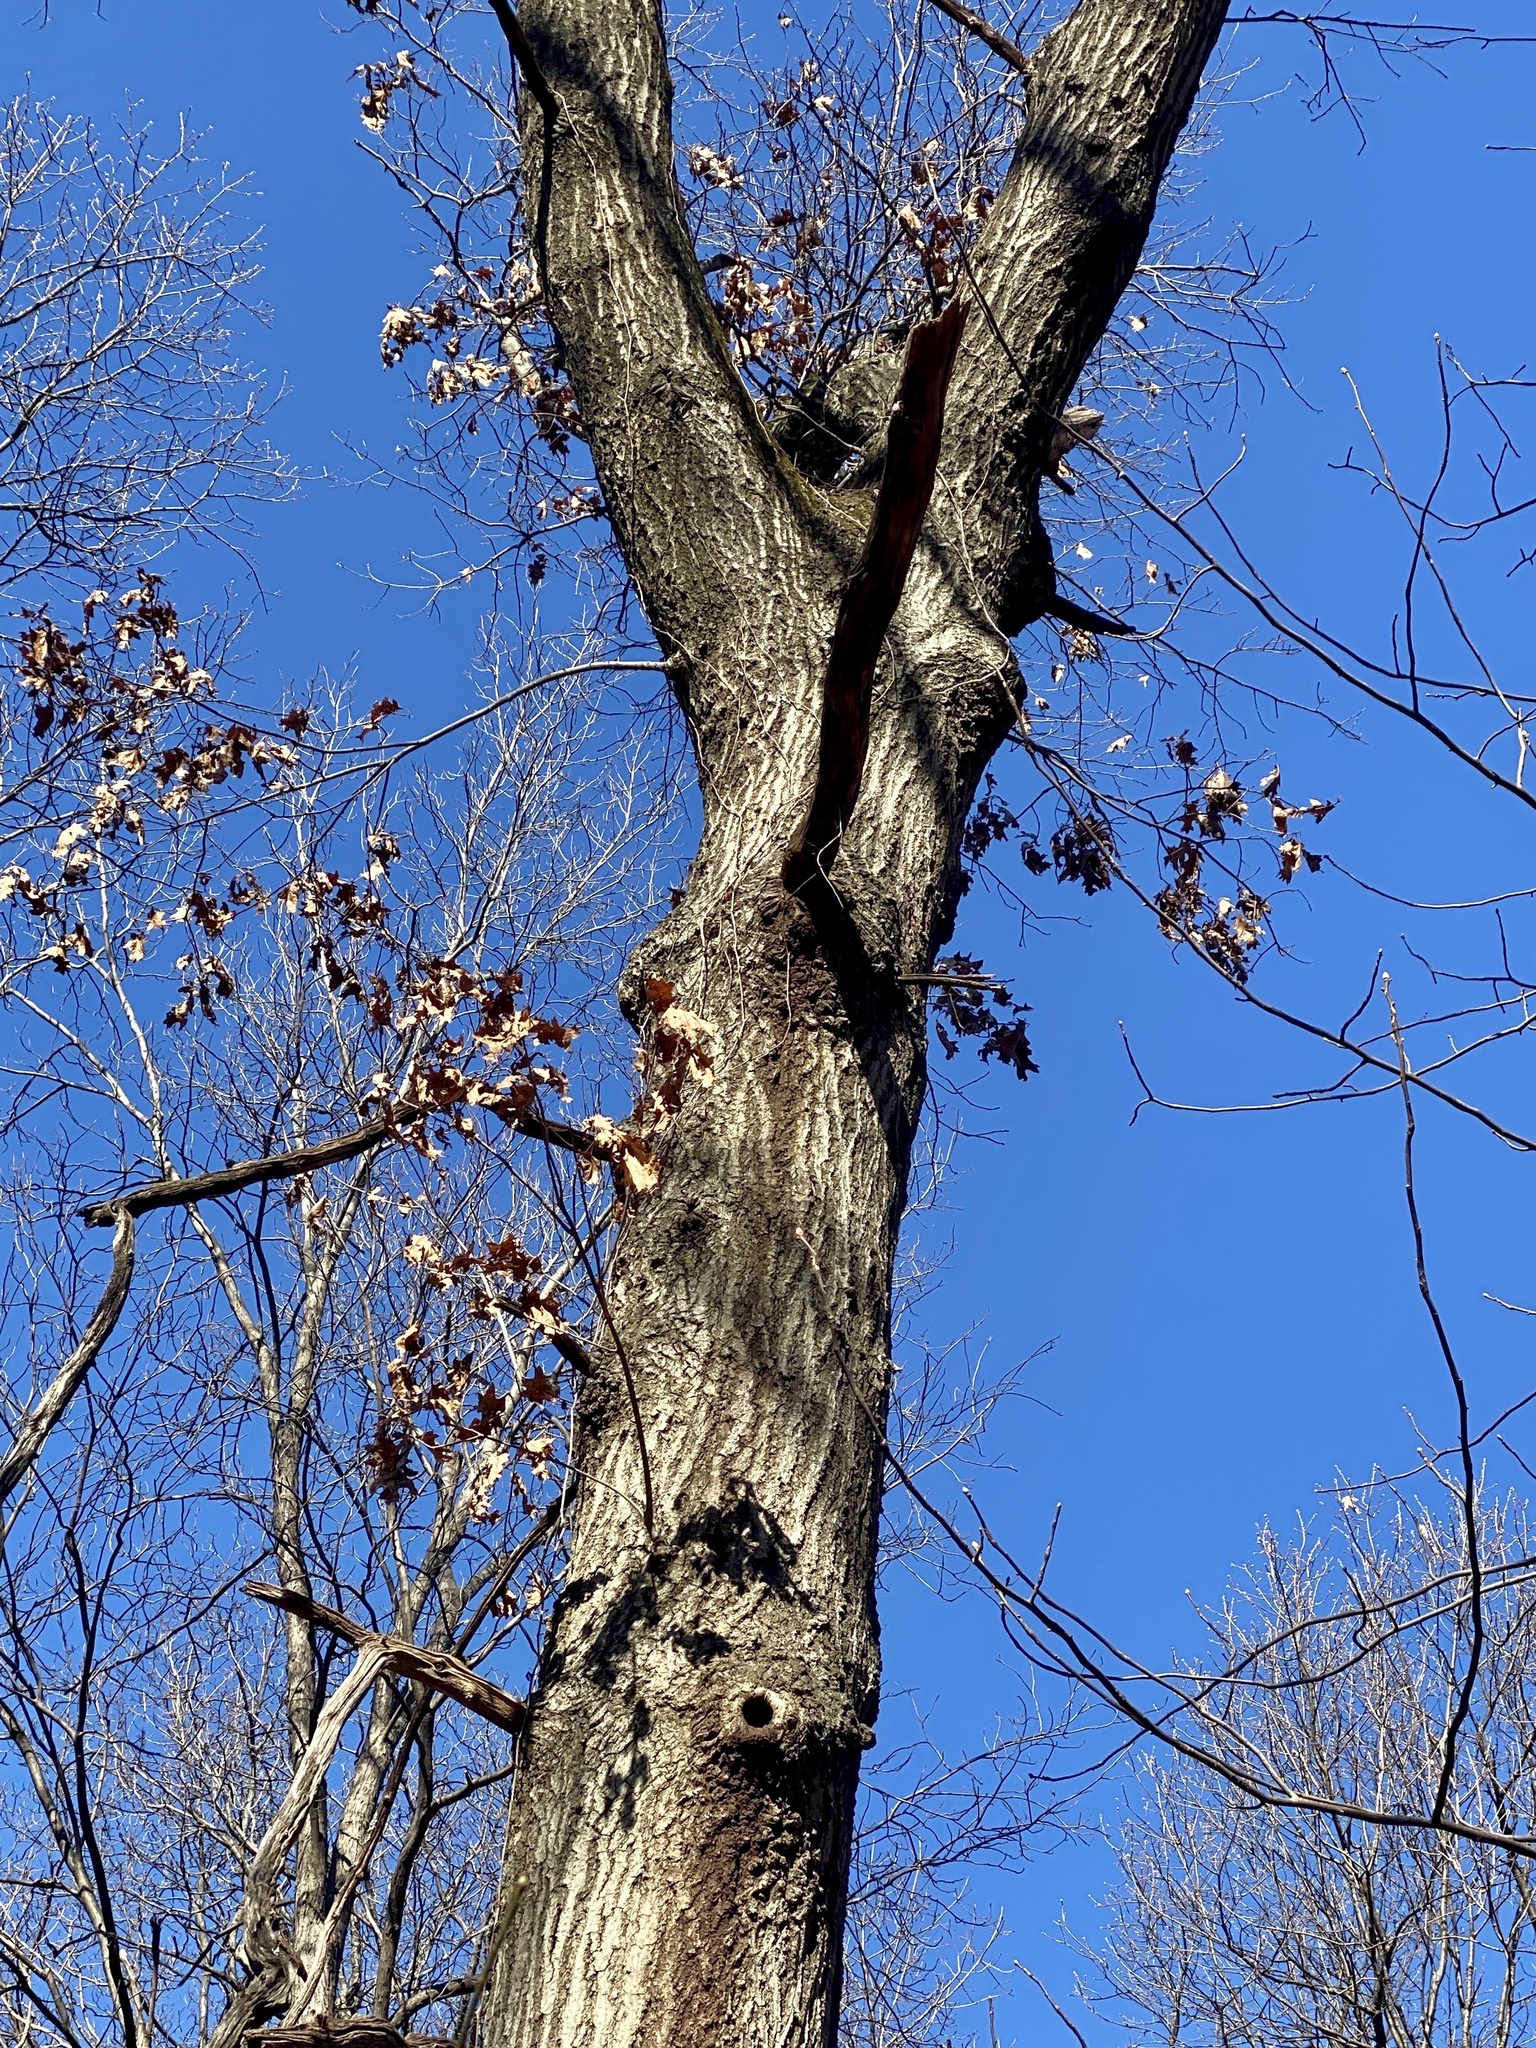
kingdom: Plantae
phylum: Tracheophyta
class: Magnoliopsida
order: Fagales
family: Fagaceae
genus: Quercus
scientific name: Quercus rubra
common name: Red oak
